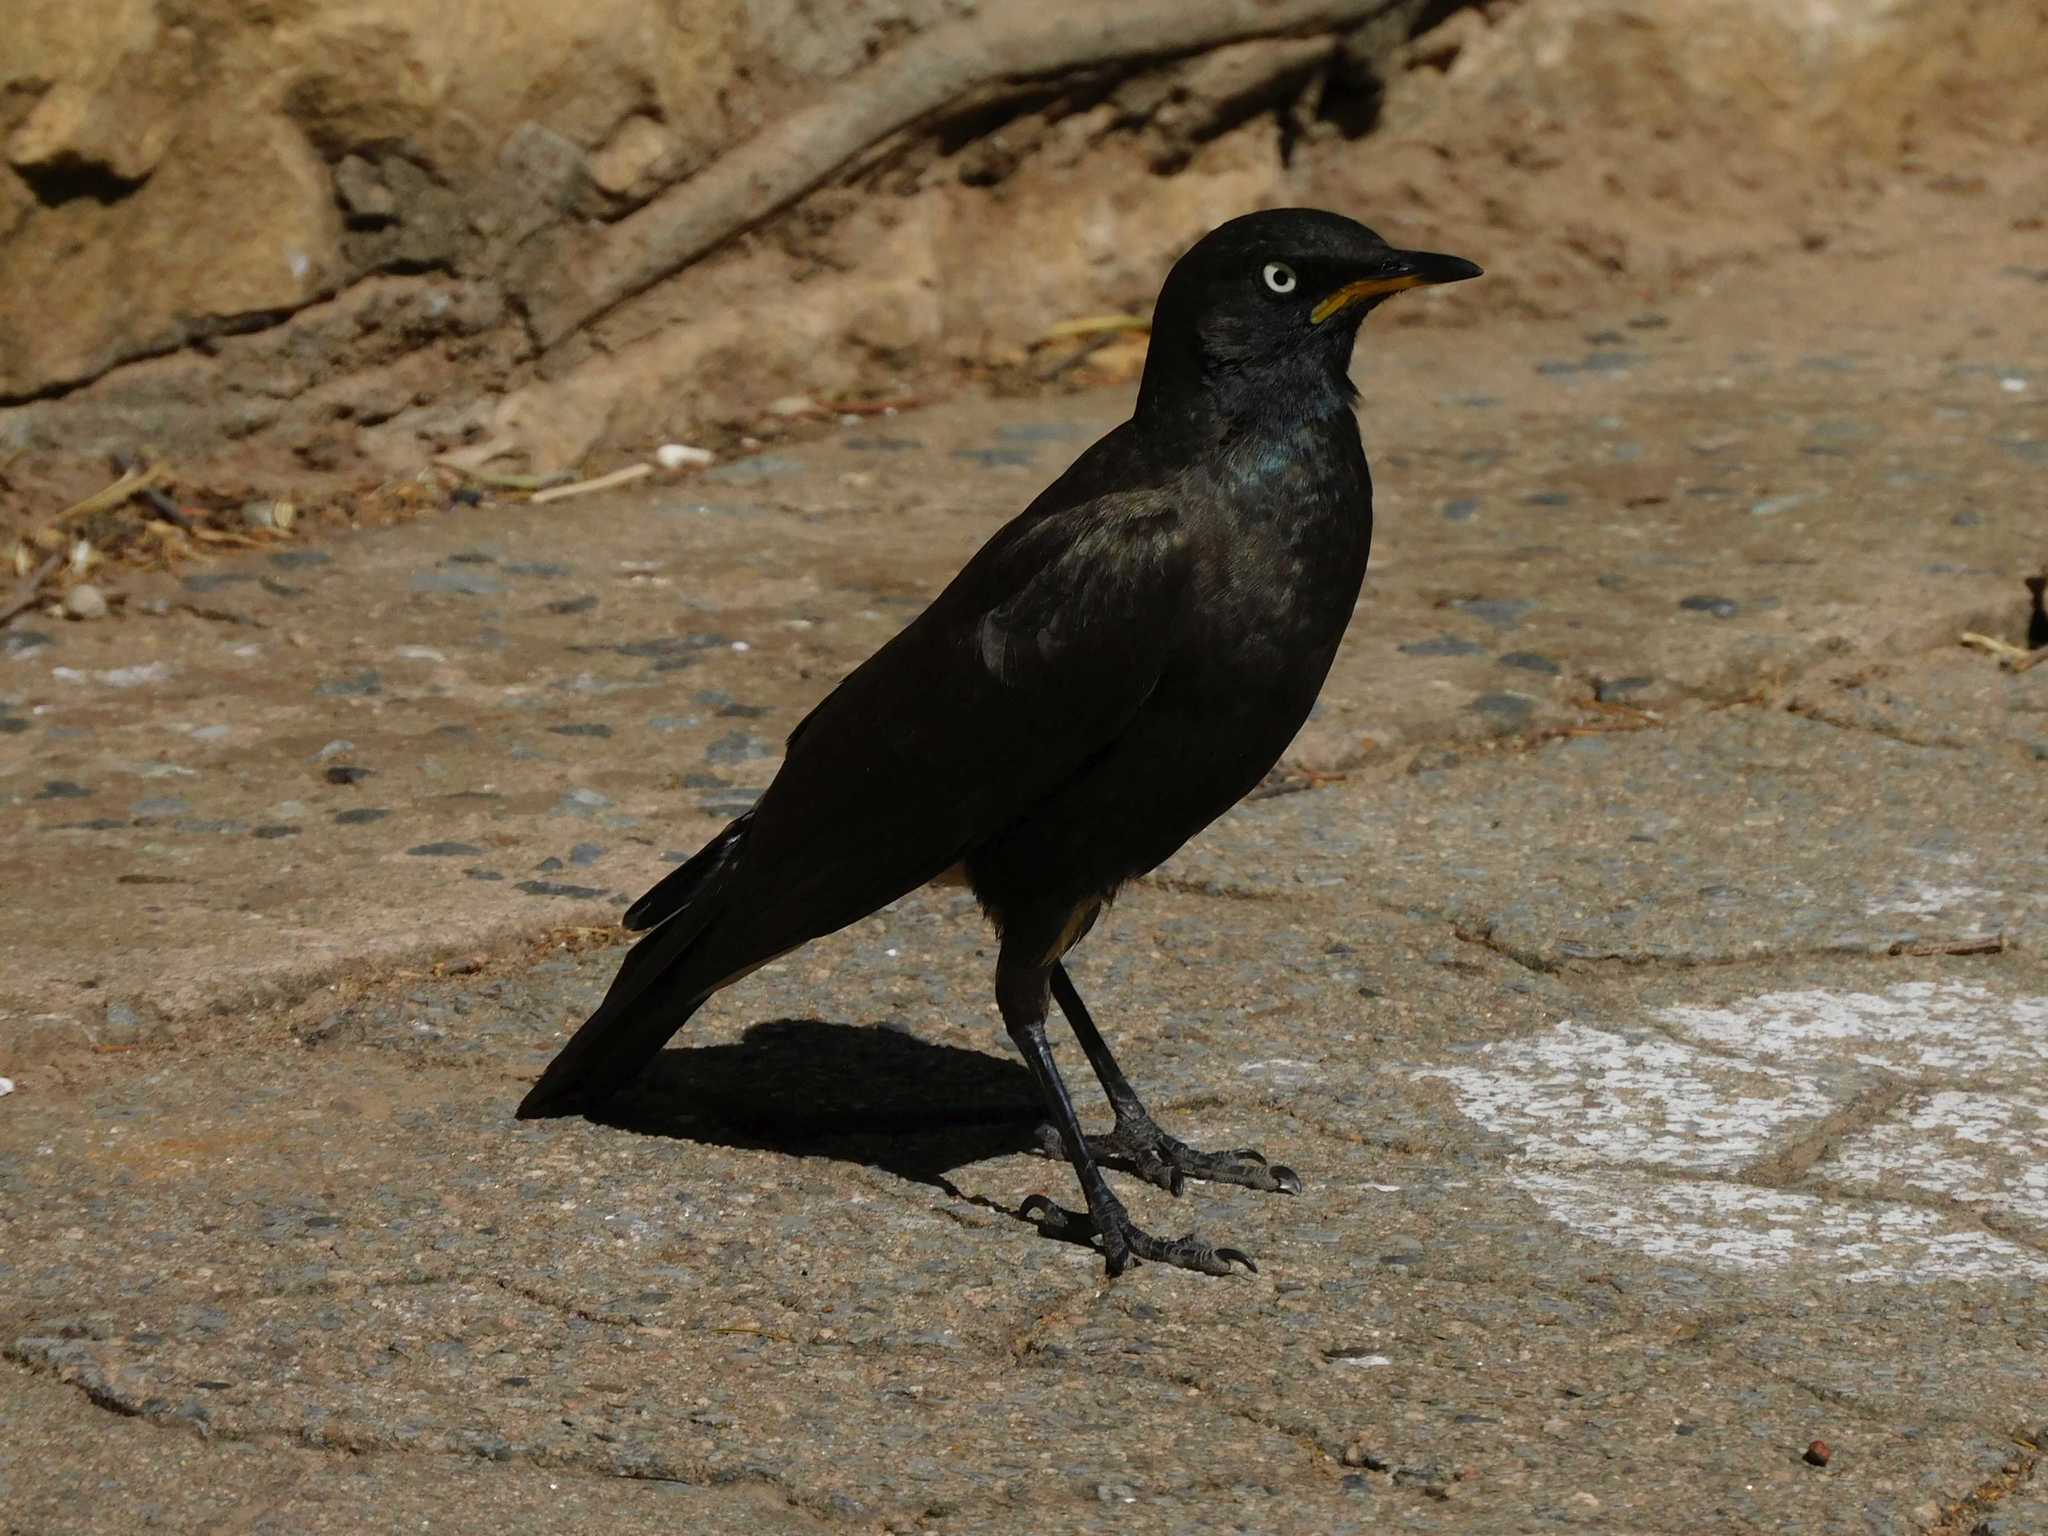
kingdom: Animalia
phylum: Chordata
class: Aves
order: Passeriformes
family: Sturnidae
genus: Lamprotornis
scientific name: Lamprotornis bicolor
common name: Pied starling
